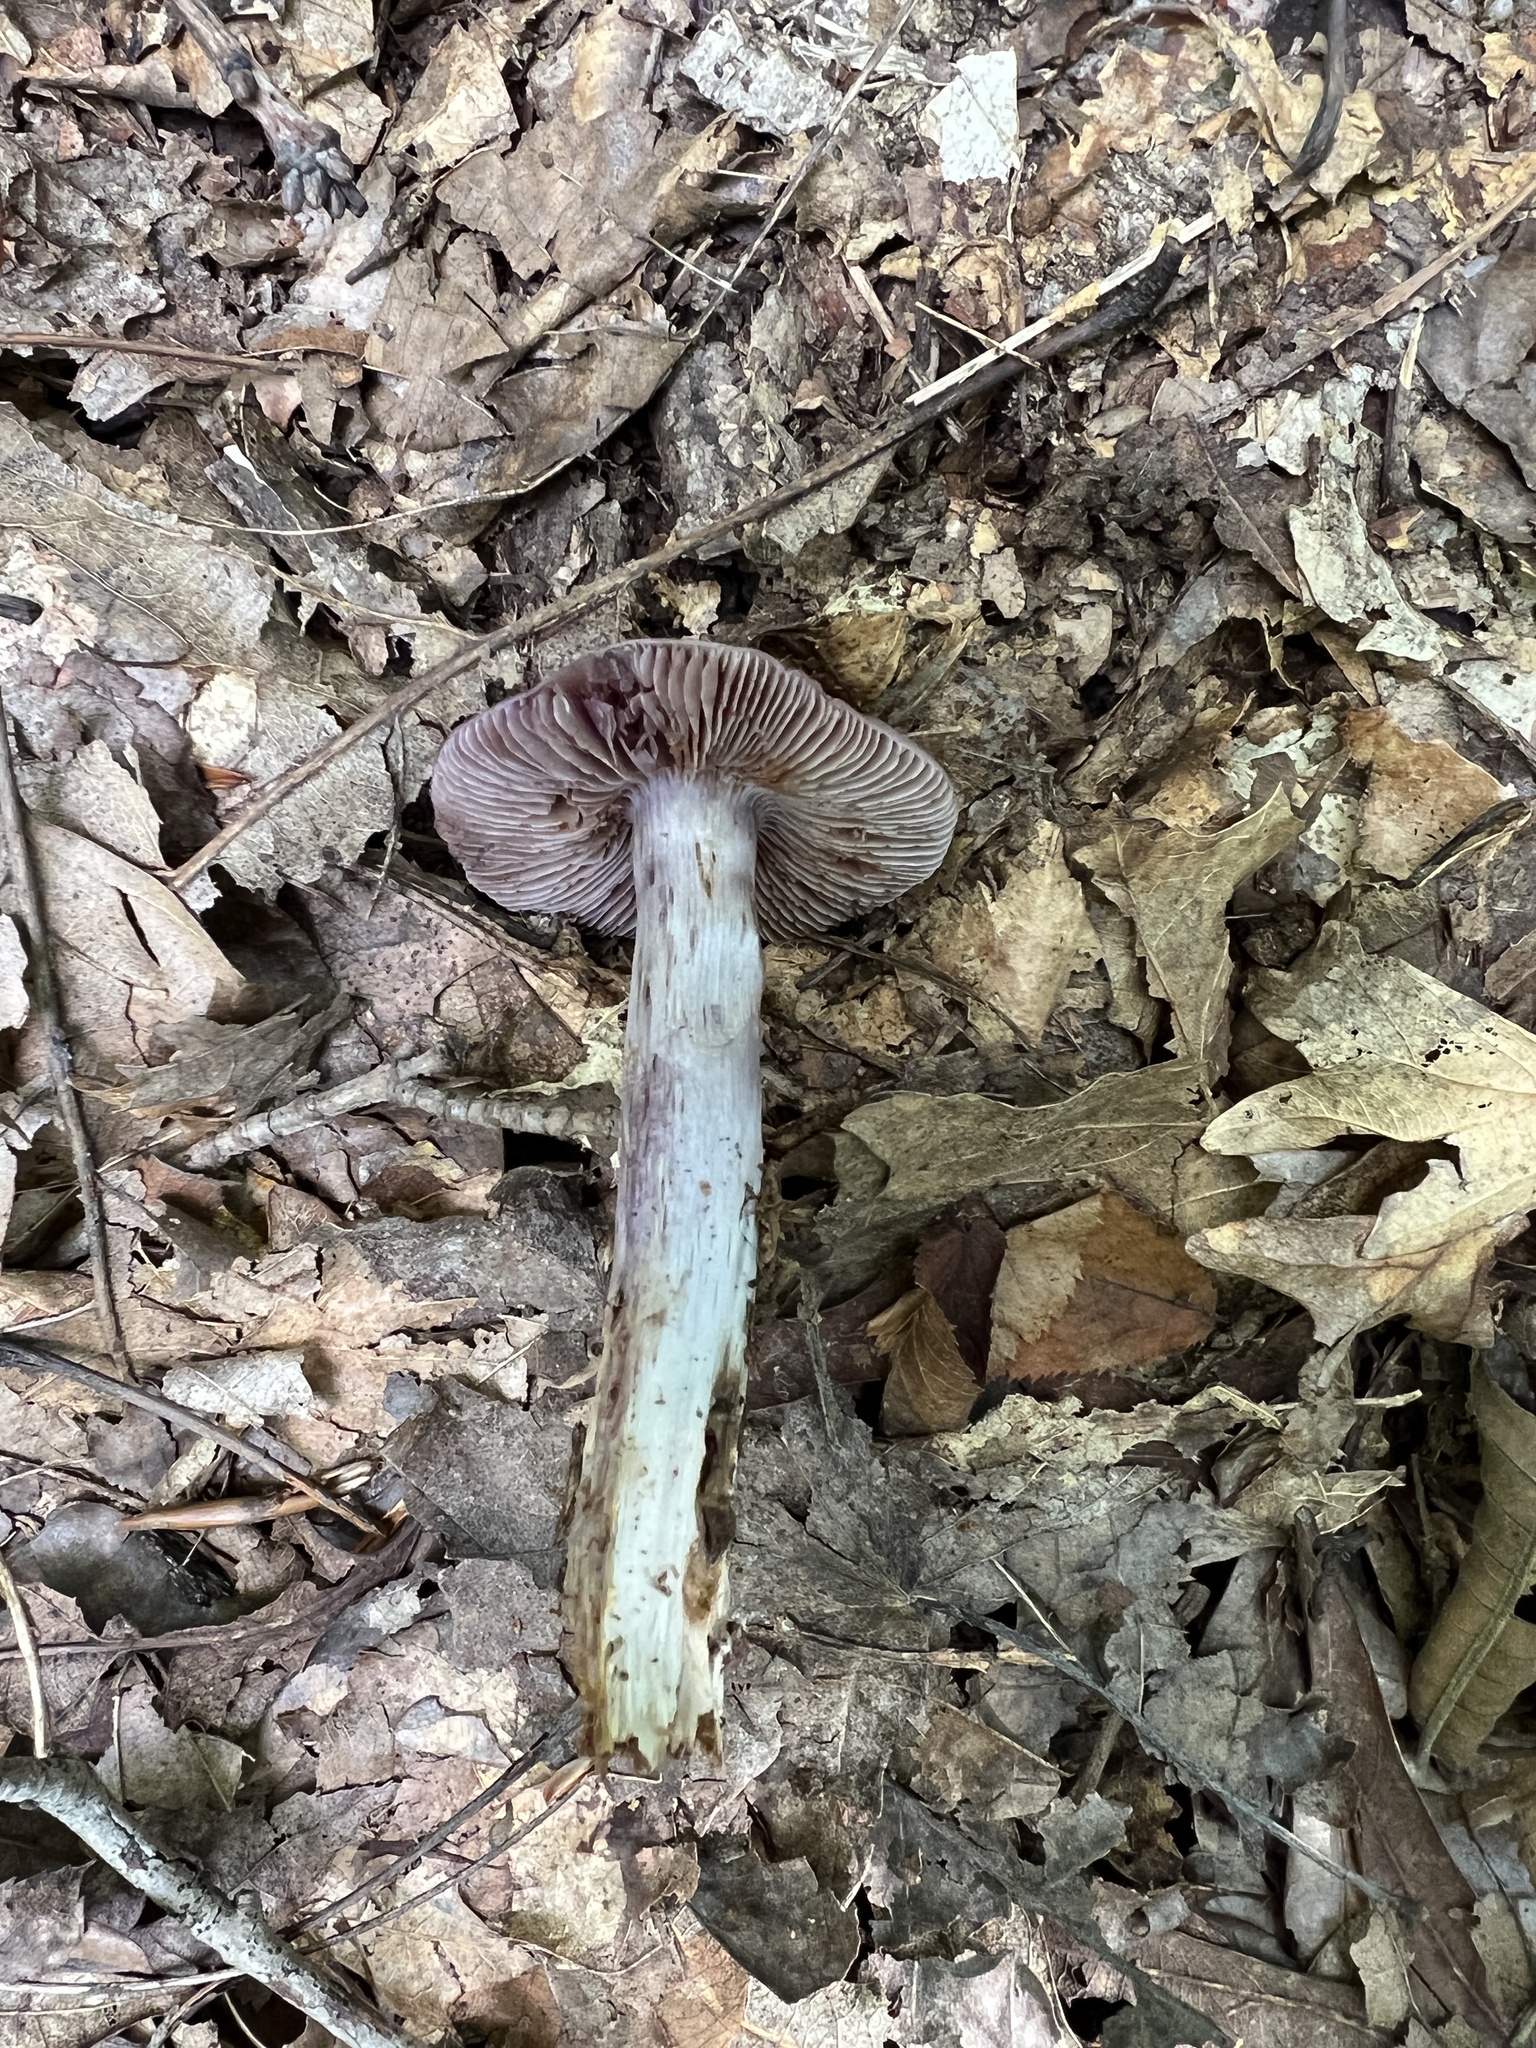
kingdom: Fungi
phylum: Basidiomycota
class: Agaricomycetes
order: Agaricales
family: Cortinariaceae
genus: Cortinarius
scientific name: Cortinarius splendidus
